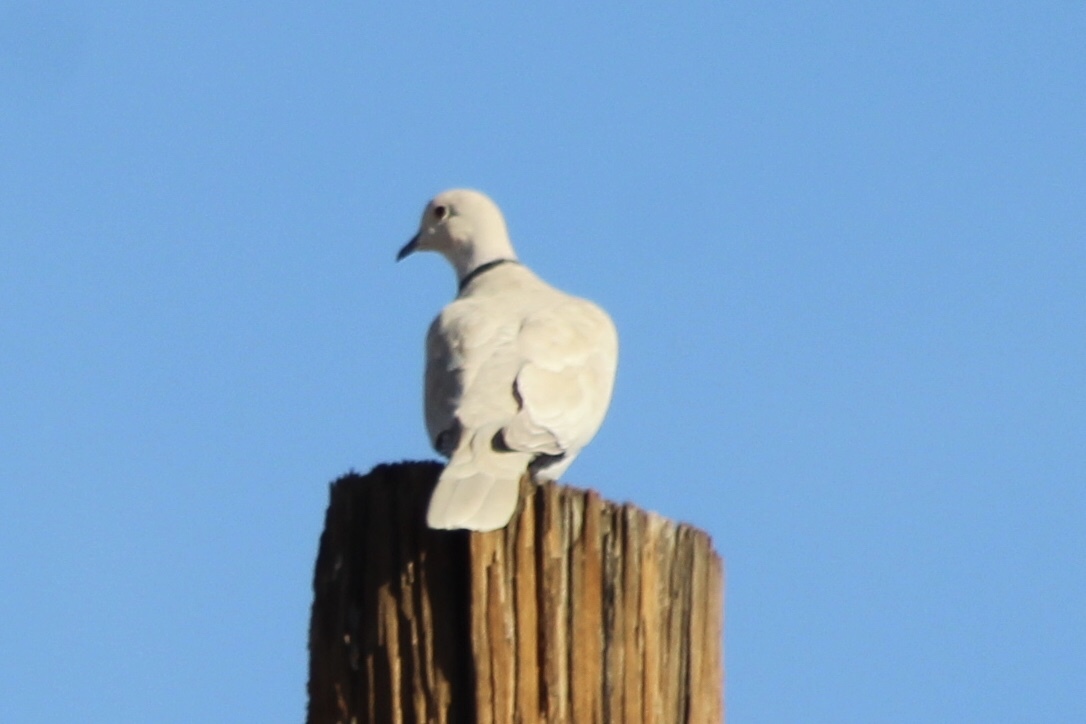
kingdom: Animalia
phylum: Chordata
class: Aves
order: Columbiformes
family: Columbidae
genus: Streptopelia
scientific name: Streptopelia decaocto
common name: Eurasian collared dove
